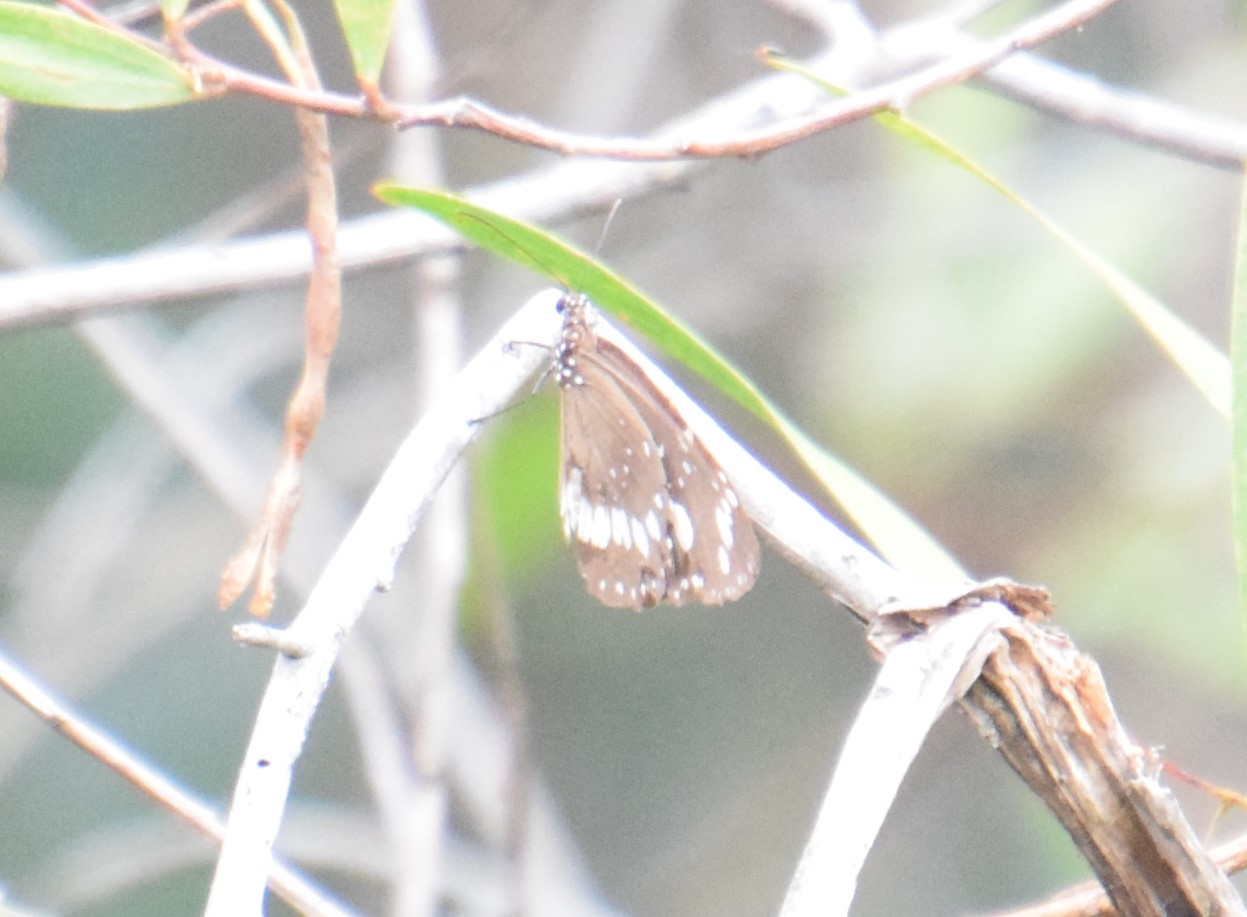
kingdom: Animalia
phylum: Arthropoda
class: Insecta
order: Lepidoptera
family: Nymphalidae
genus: Euploea
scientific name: Euploea core
